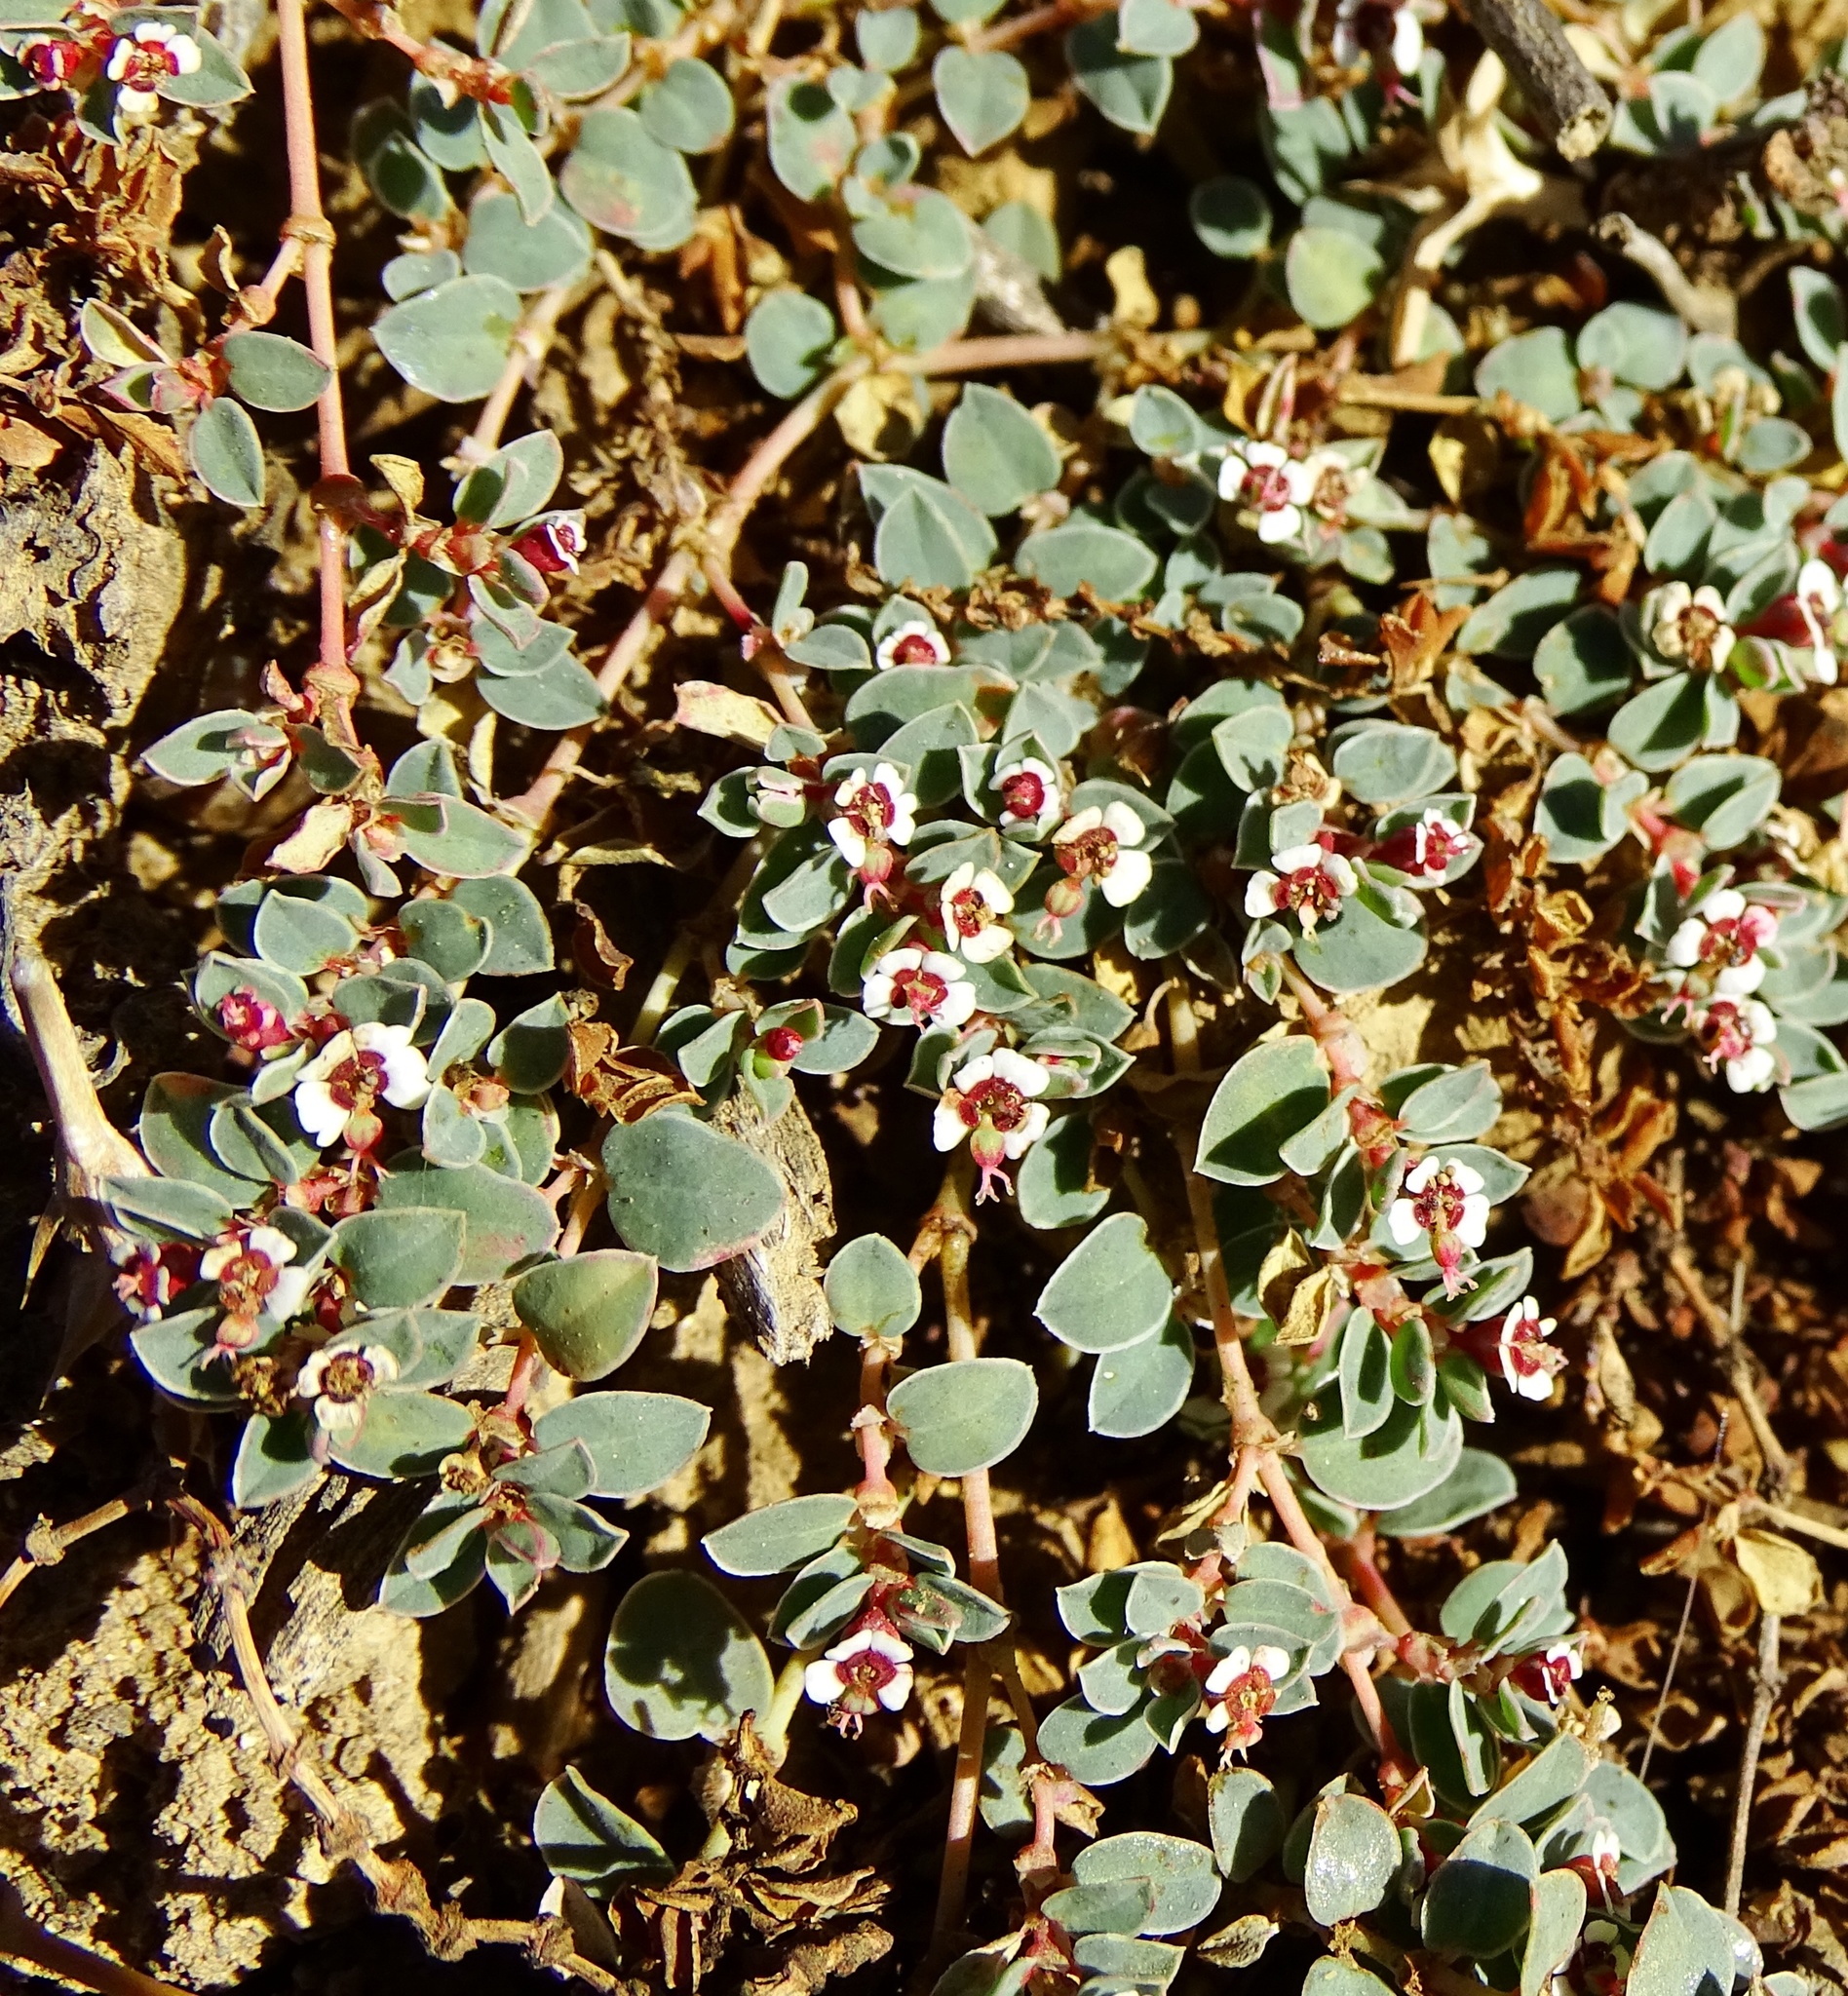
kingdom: Plantae
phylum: Tracheophyta
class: Magnoliopsida
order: Malpighiales
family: Euphorbiaceae
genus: Euphorbia
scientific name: Euphorbia albomarginata
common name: Whitemargin sandmat
